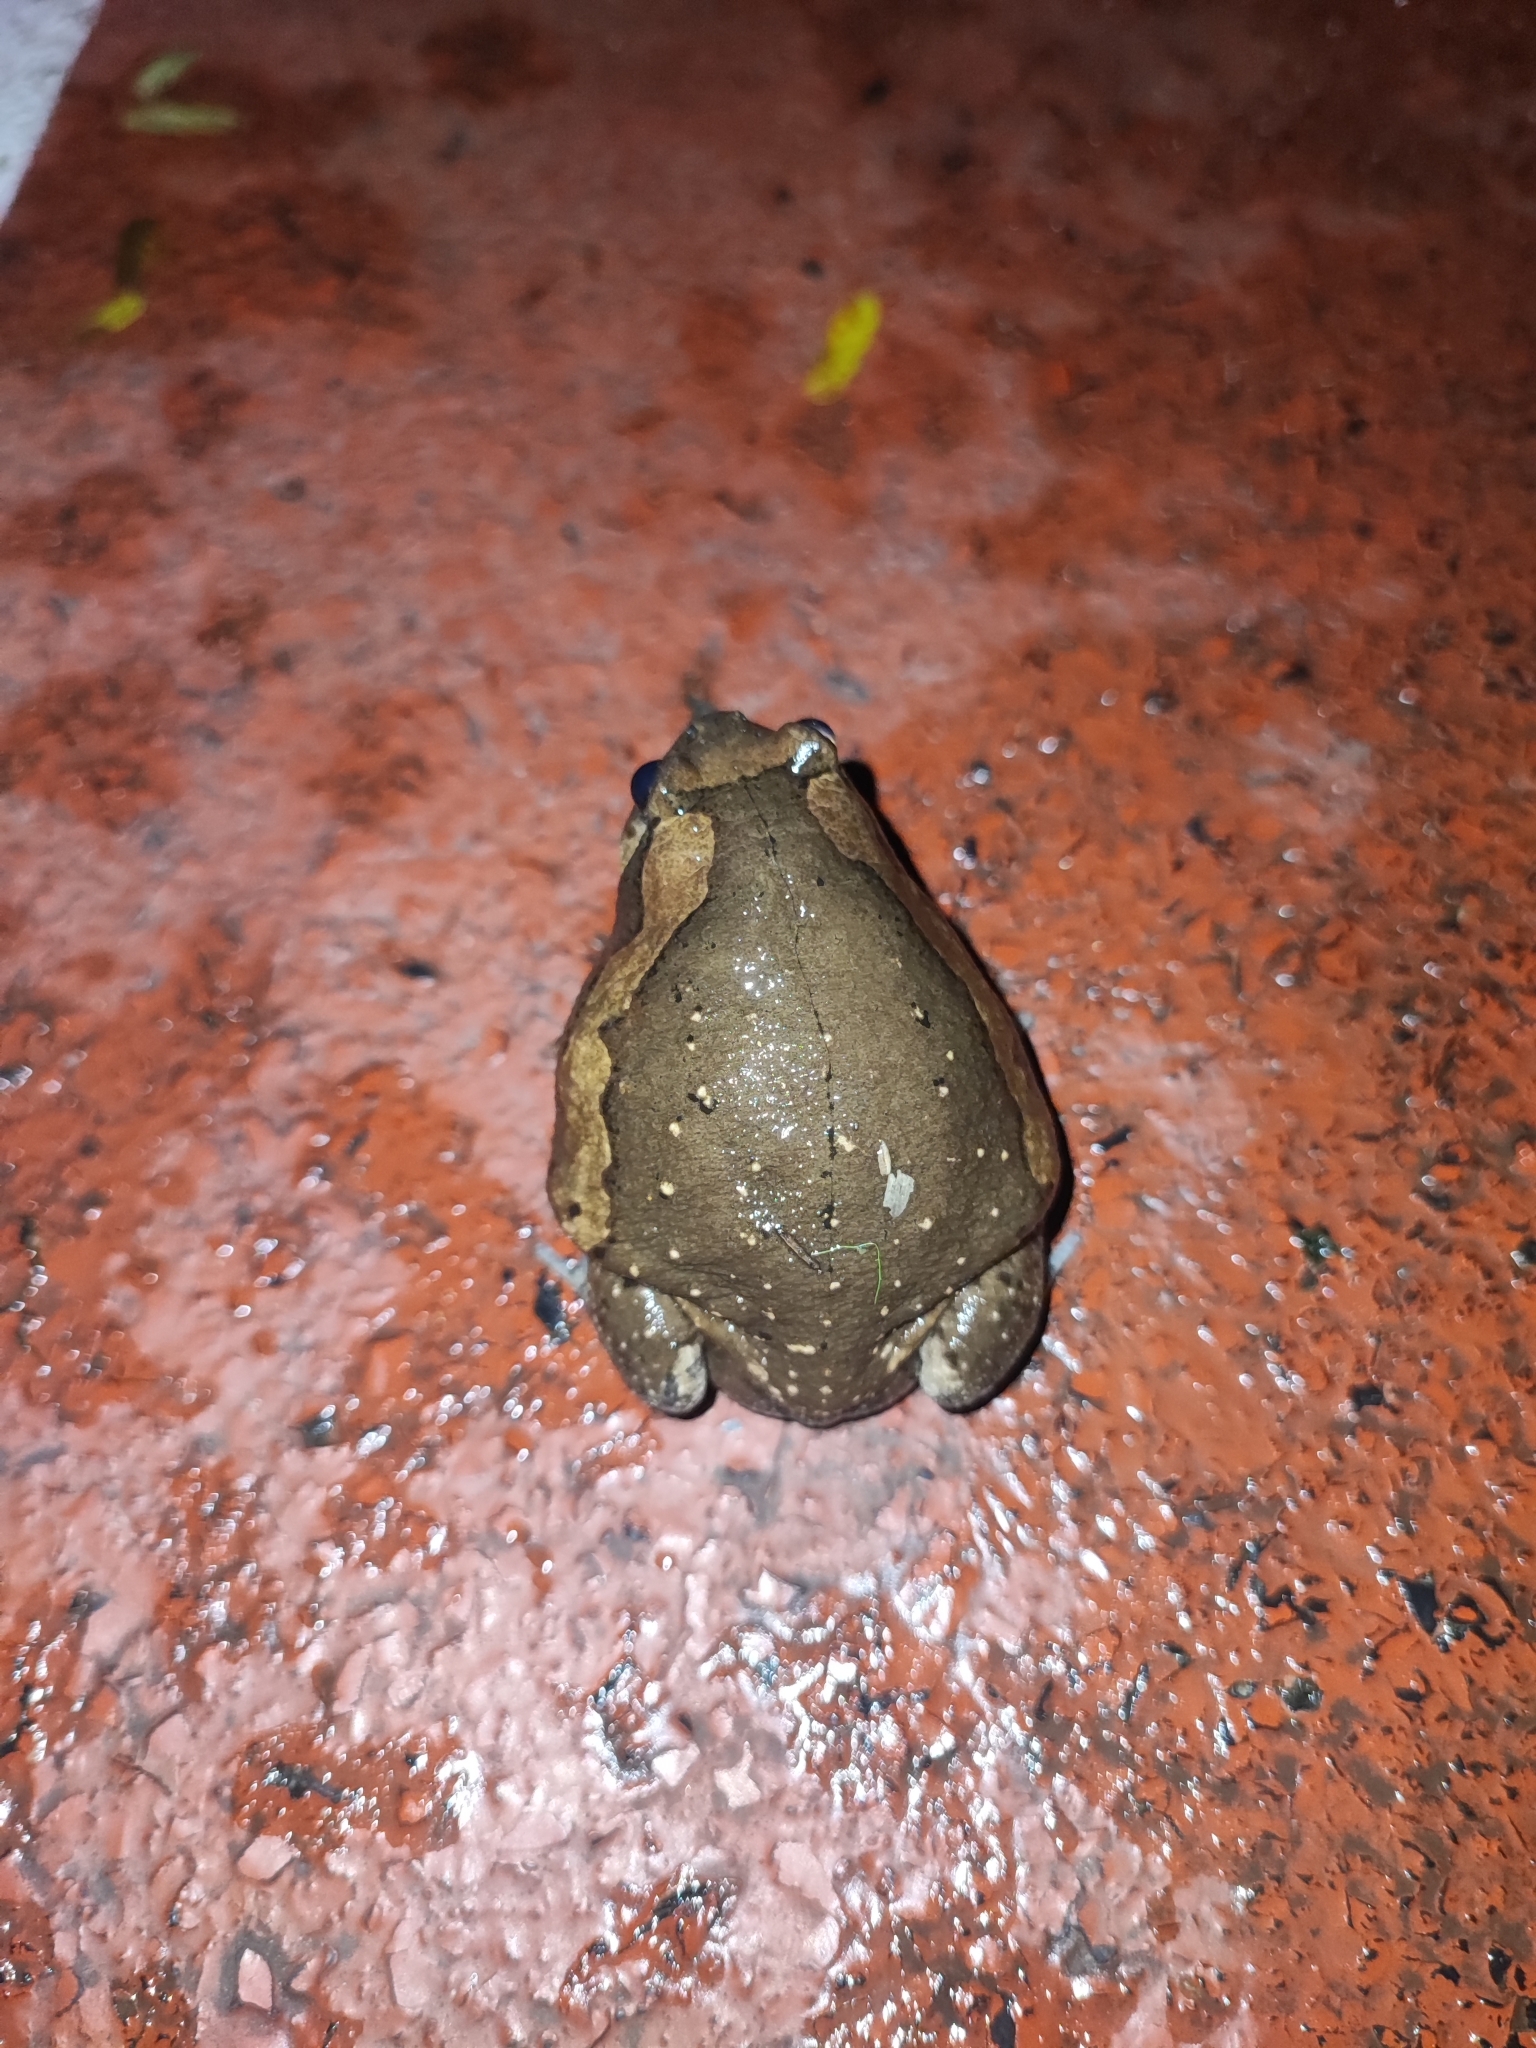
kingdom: Animalia
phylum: Chordata
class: Amphibia
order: Anura
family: Microhylidae
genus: Kaloula
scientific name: Kaloula pulchra
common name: Common,banded bullfrog
